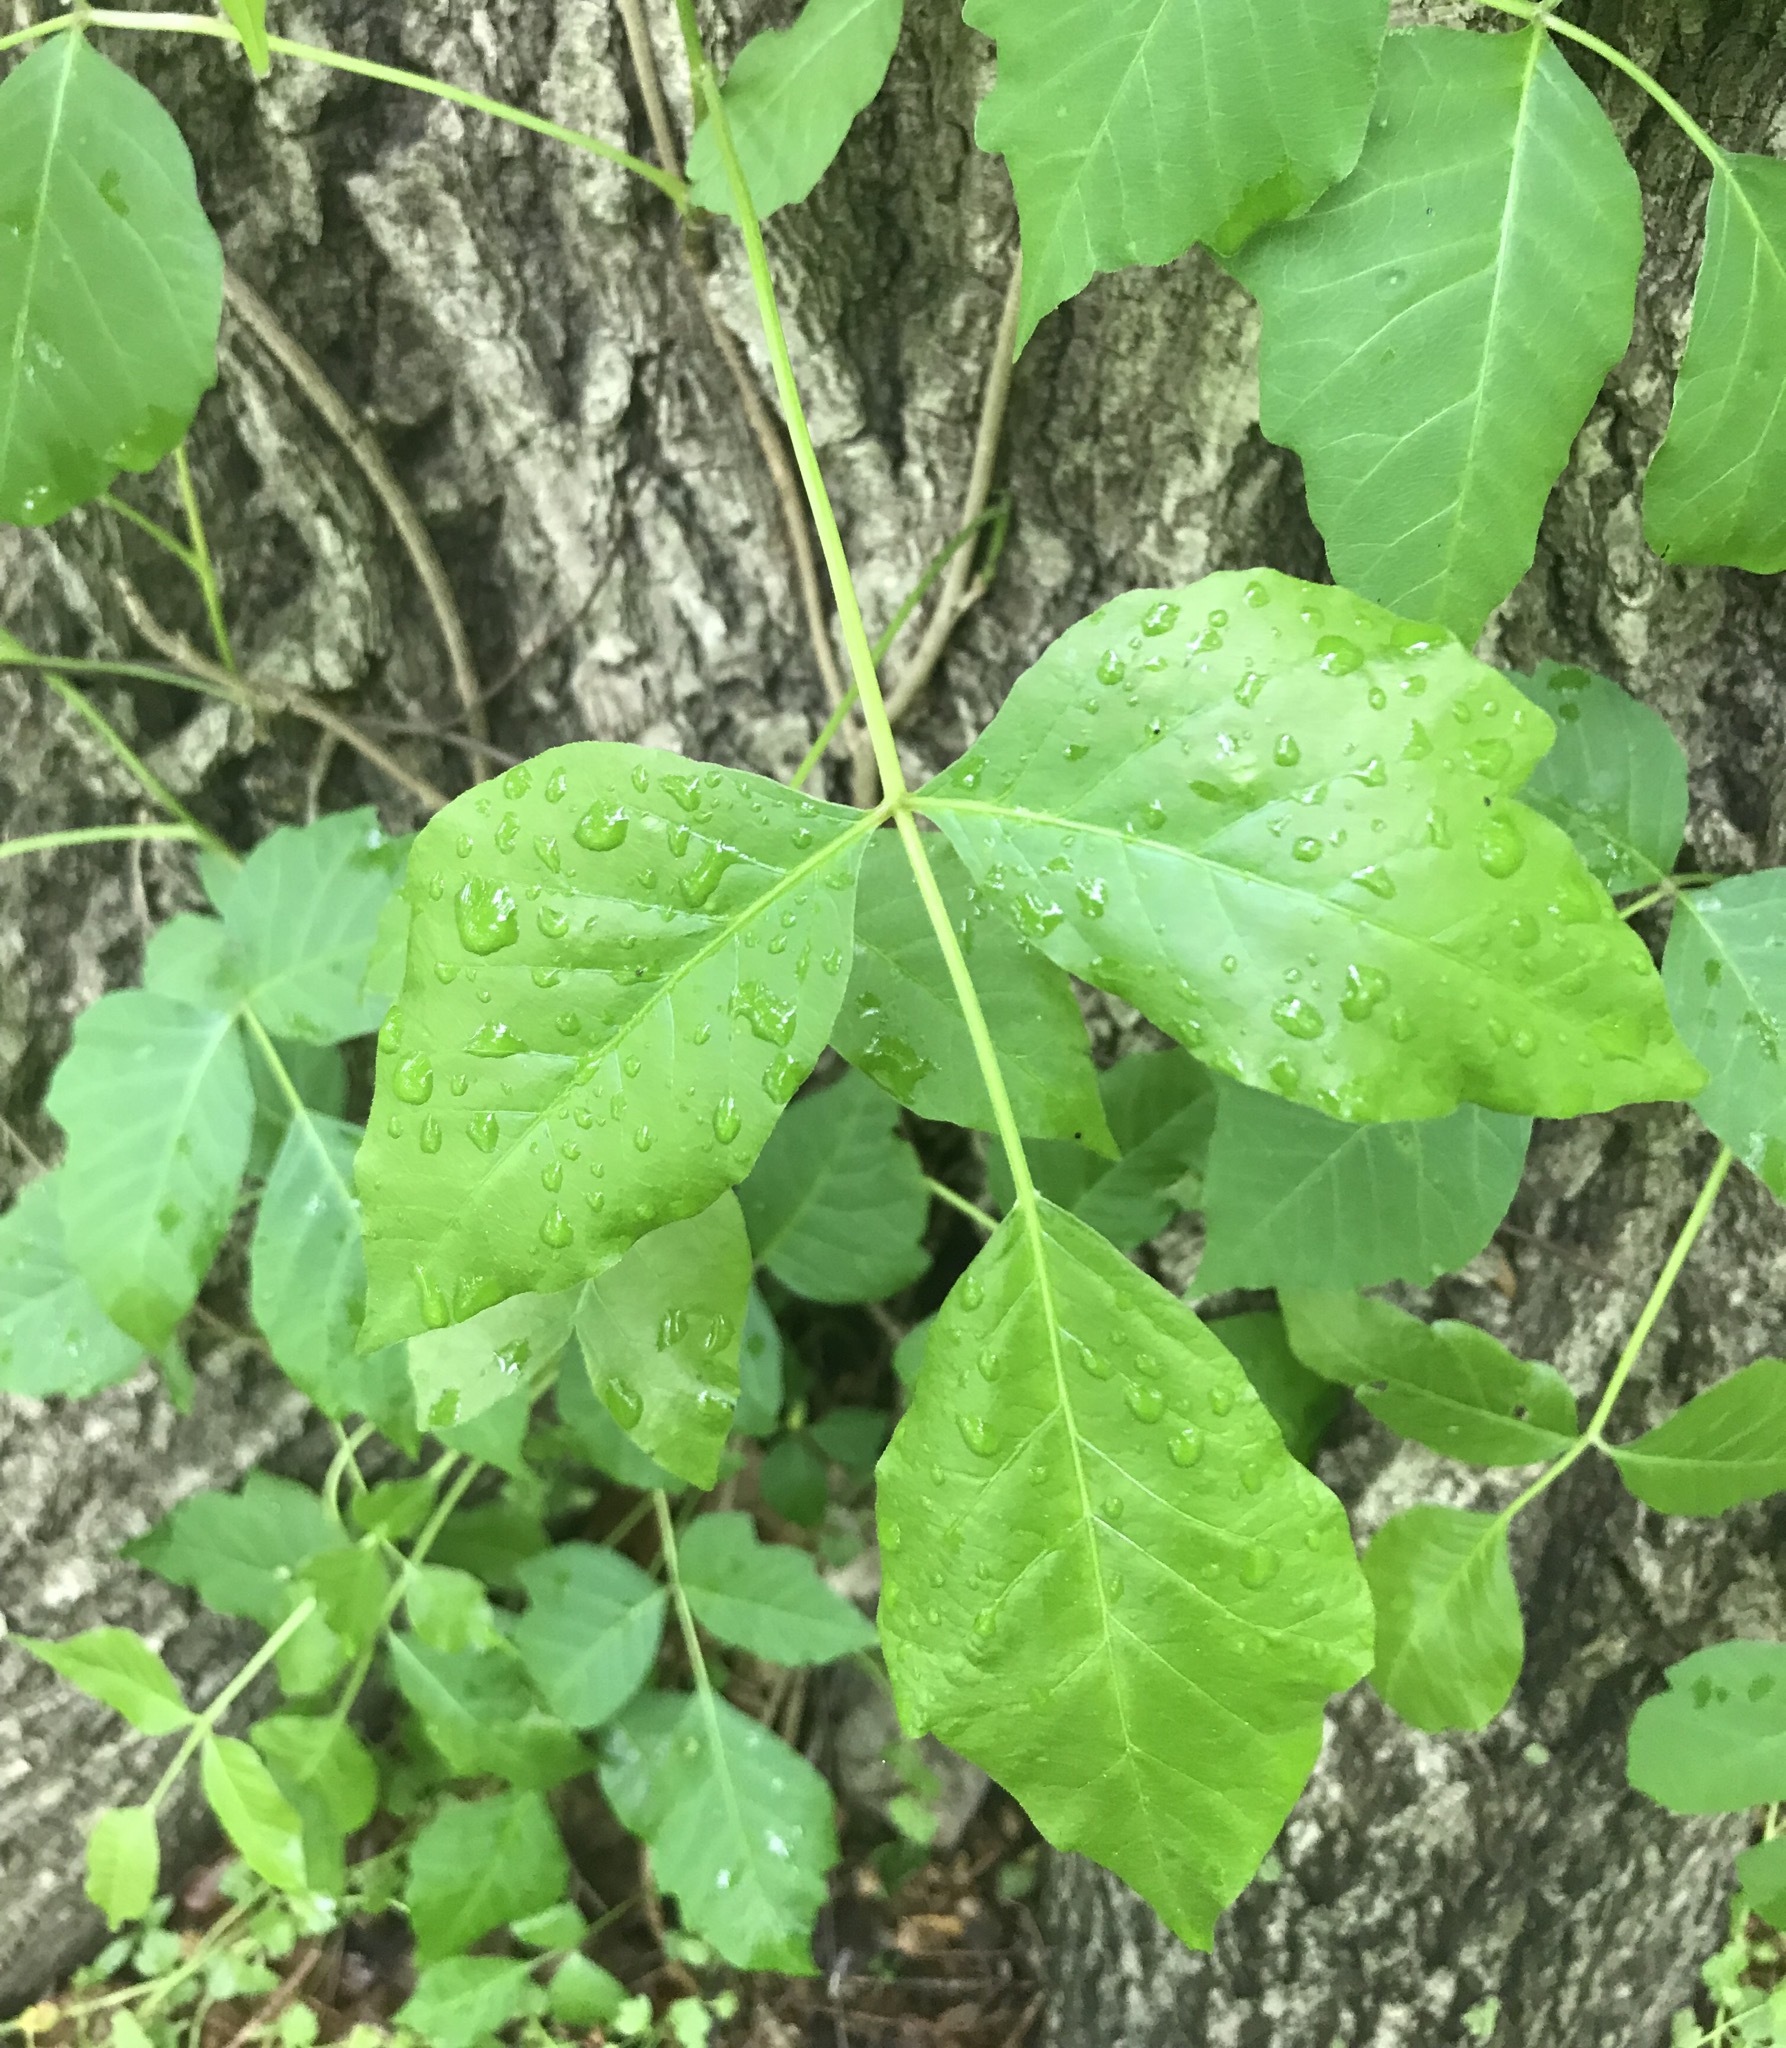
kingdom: Plantae
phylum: Tracheophyta
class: Magnoliopsida
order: Sapindales
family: Anacardiaceae
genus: Toxicodendron
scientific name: Toxicodendron radicans
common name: Poison ivy
